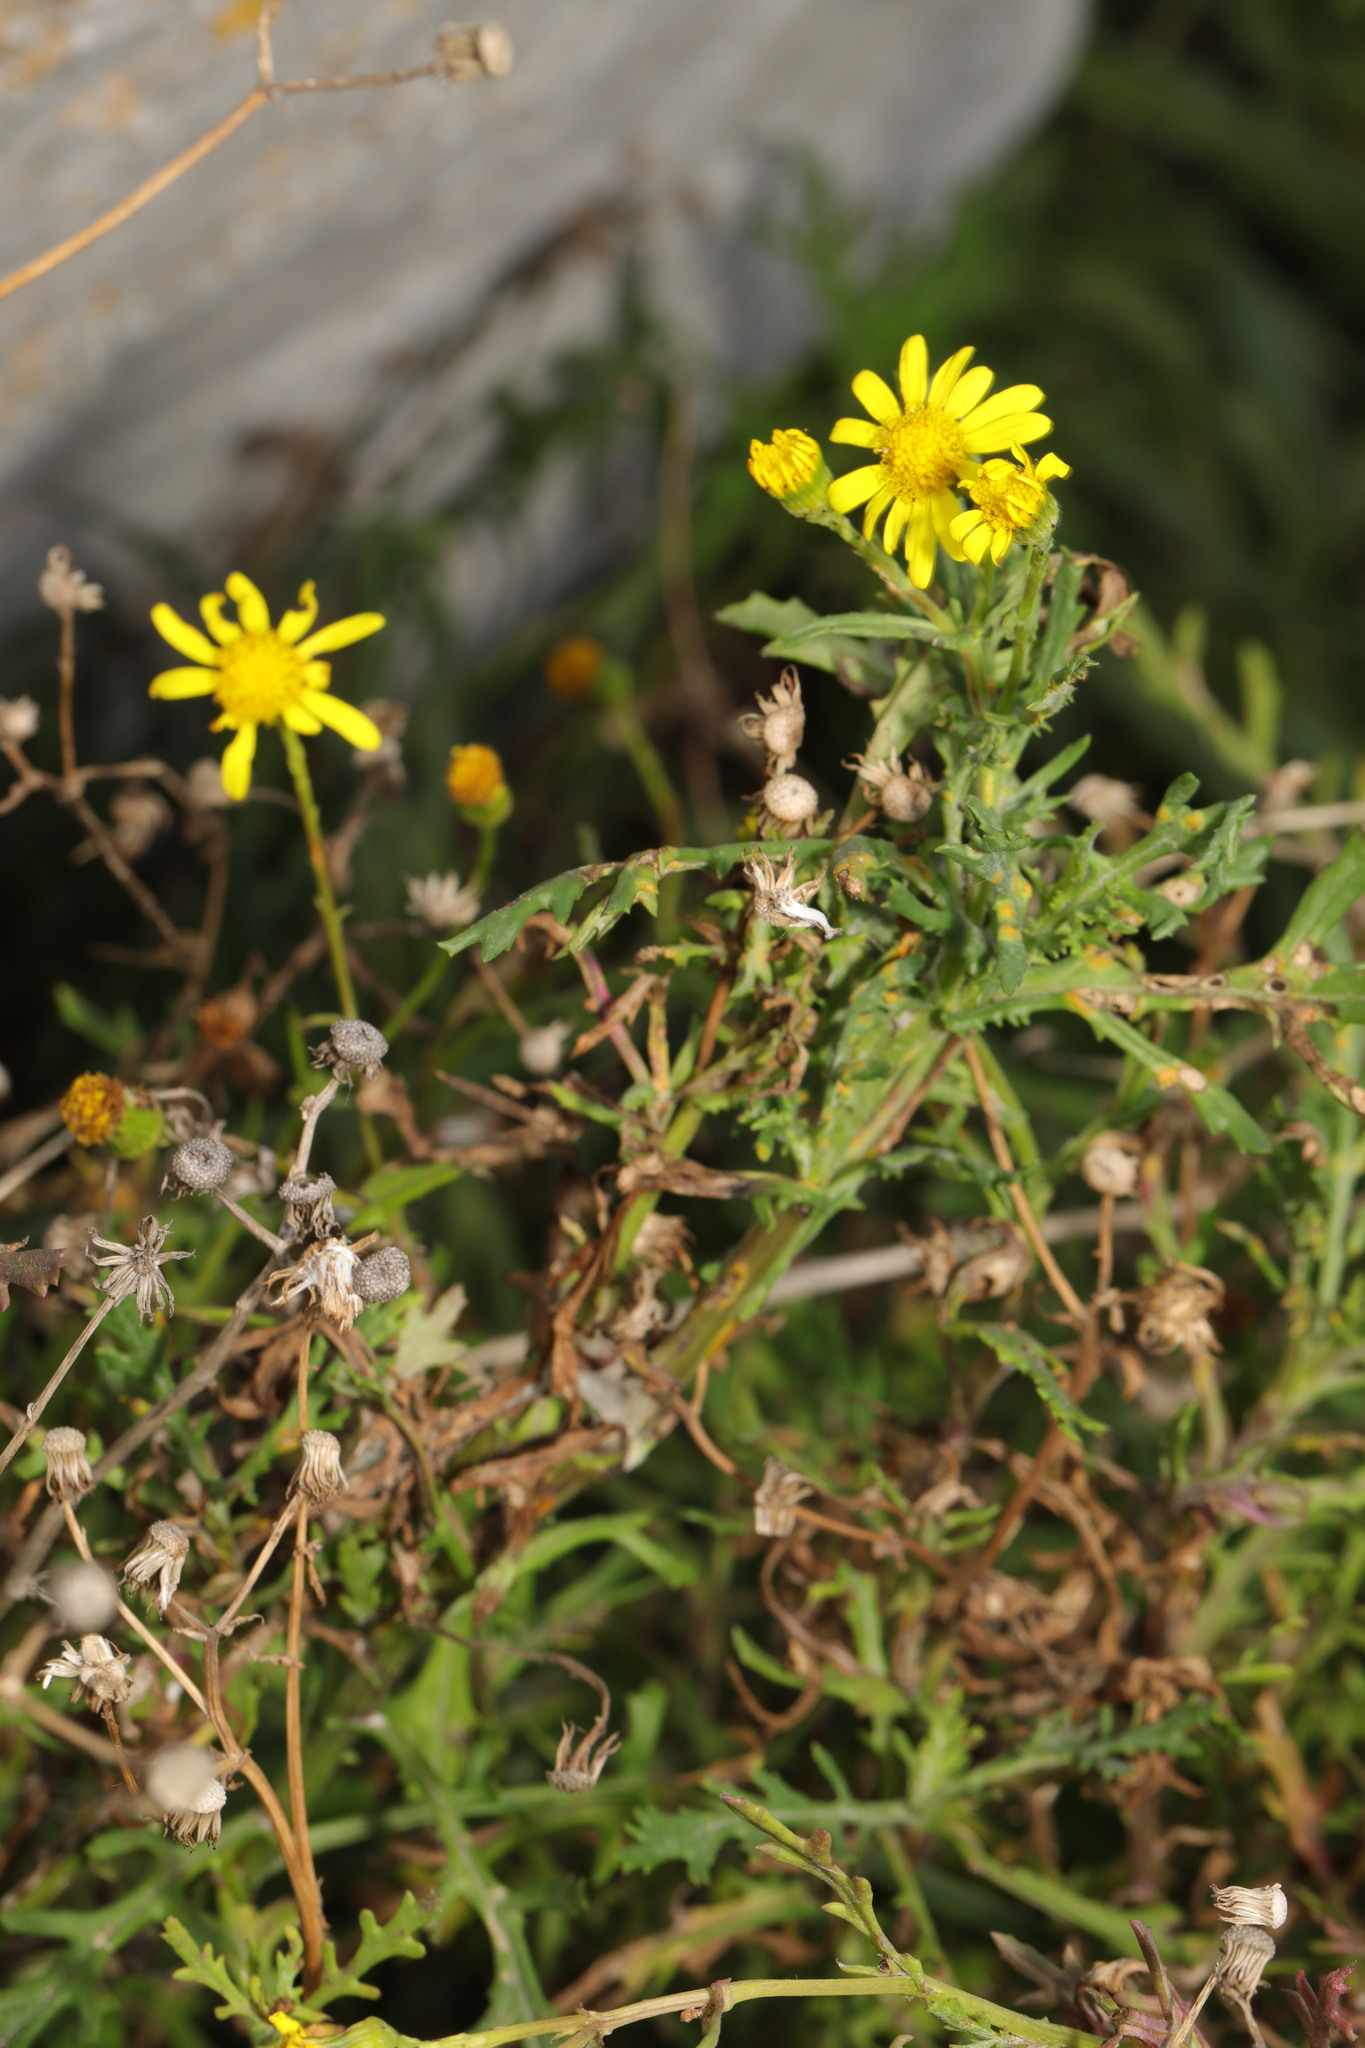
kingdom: Plantae
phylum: Tracheophyta
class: Magnoliopsida
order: Asterales
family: Asteraceae
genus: Senecio
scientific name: Senecio squalidus
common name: Oxford ragwort
